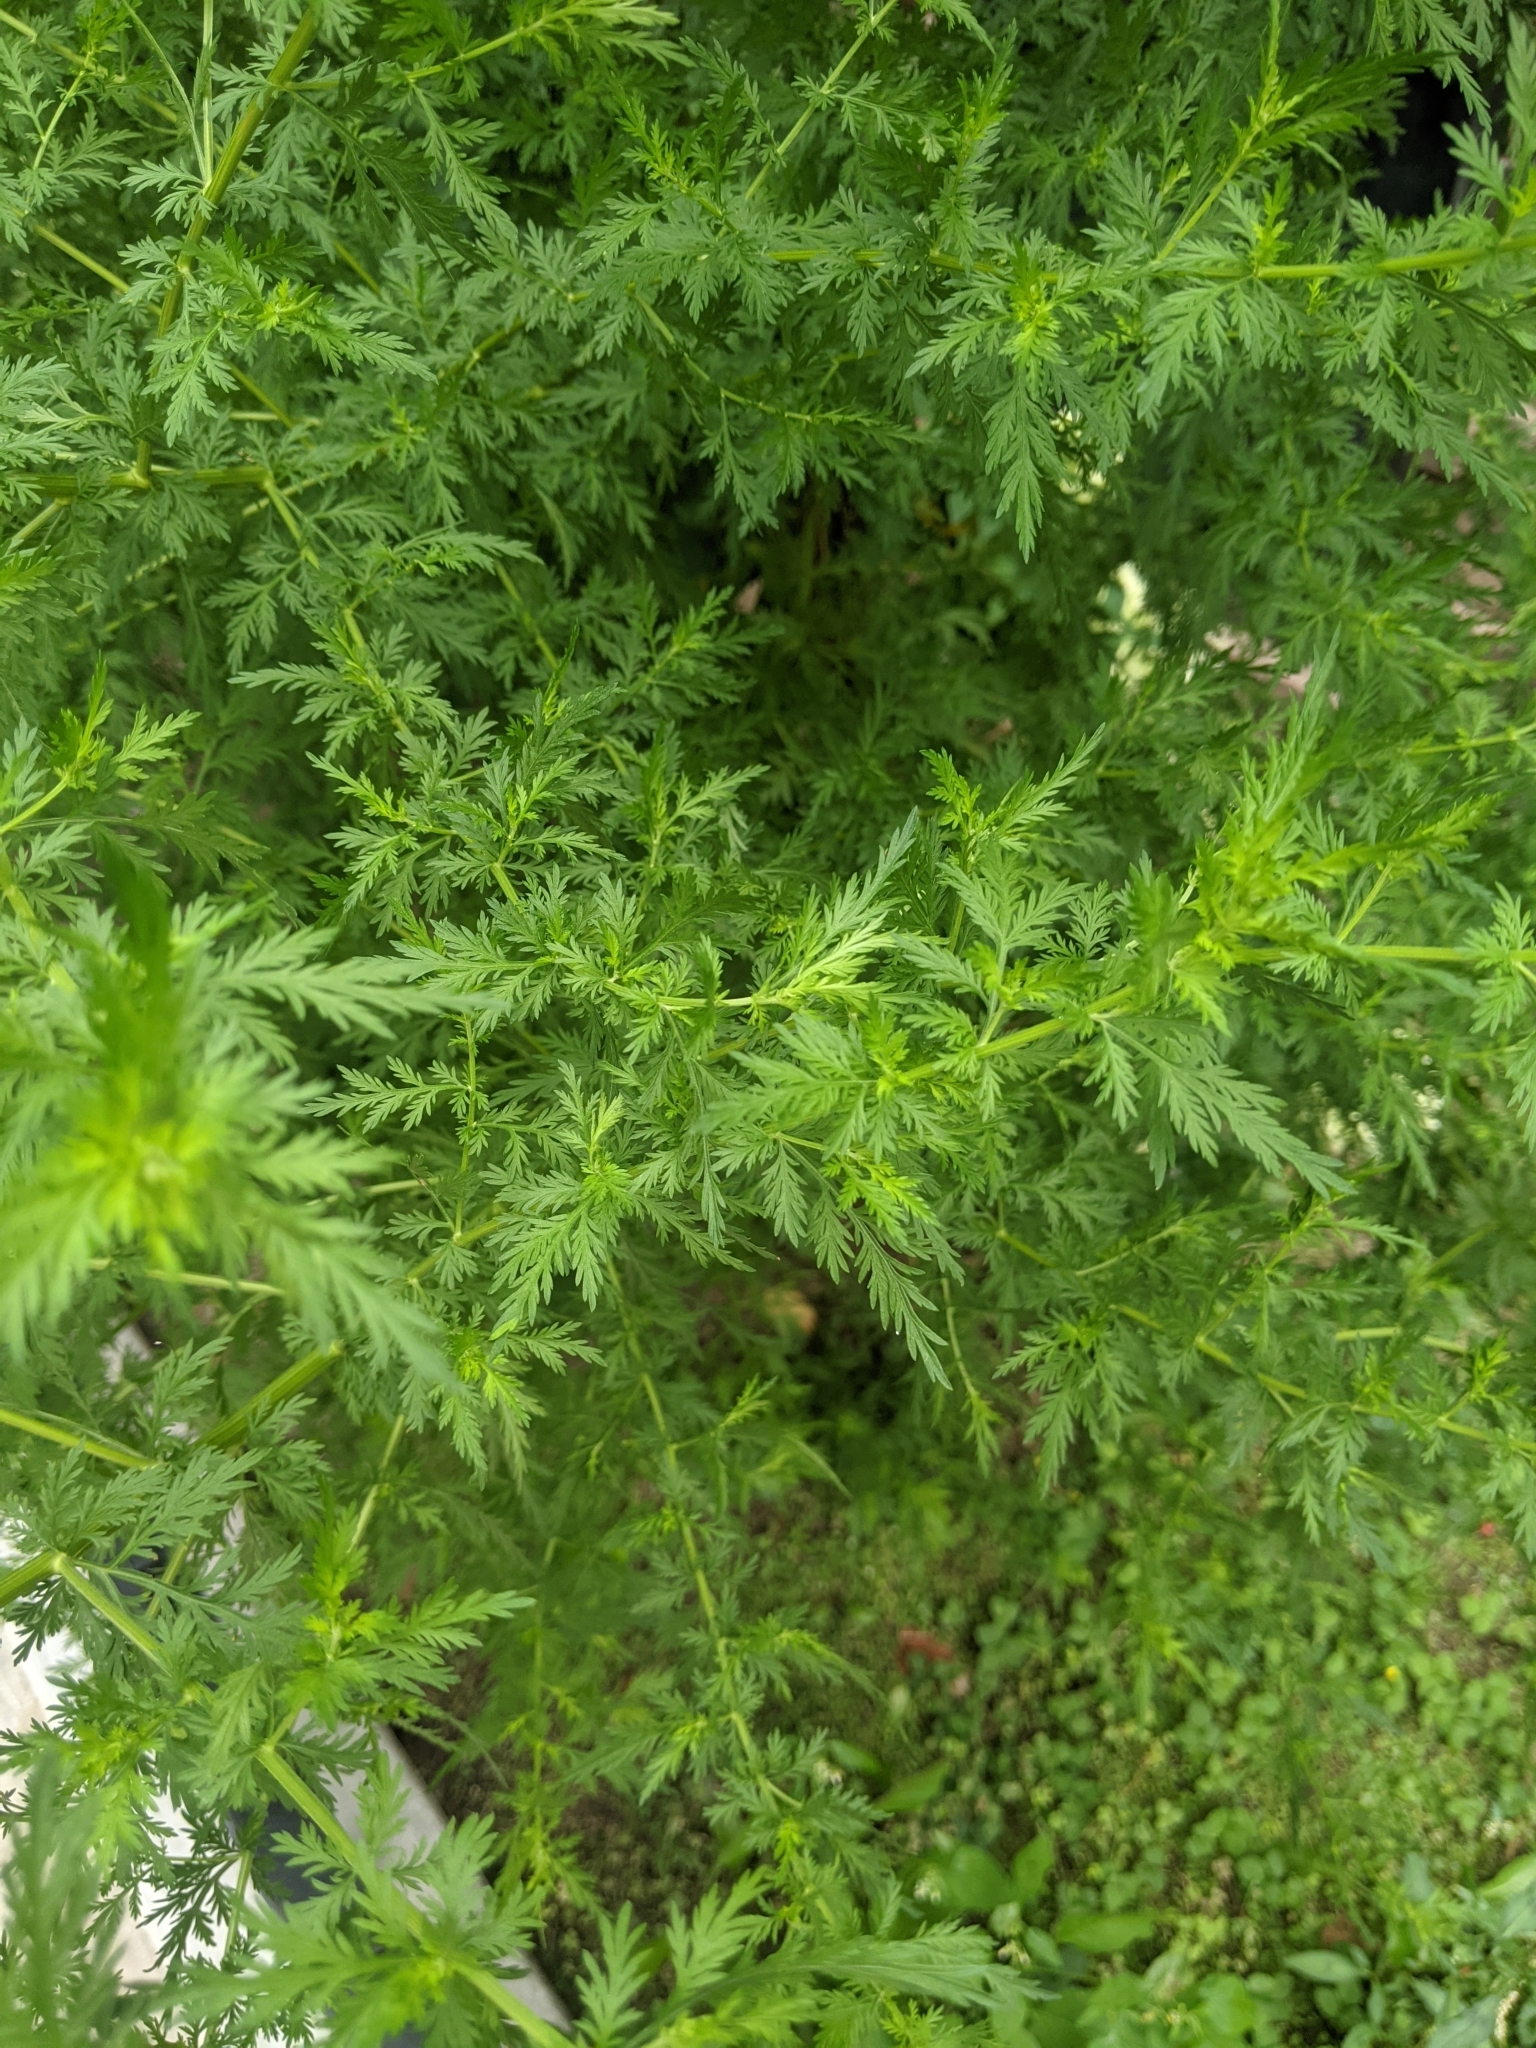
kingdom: Plantae
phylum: Tracheophyta
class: Magnoliopsida
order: Asterales
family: Asteraceae
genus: Artemisia
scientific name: Artemisia annua
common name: Sweet sagewort
